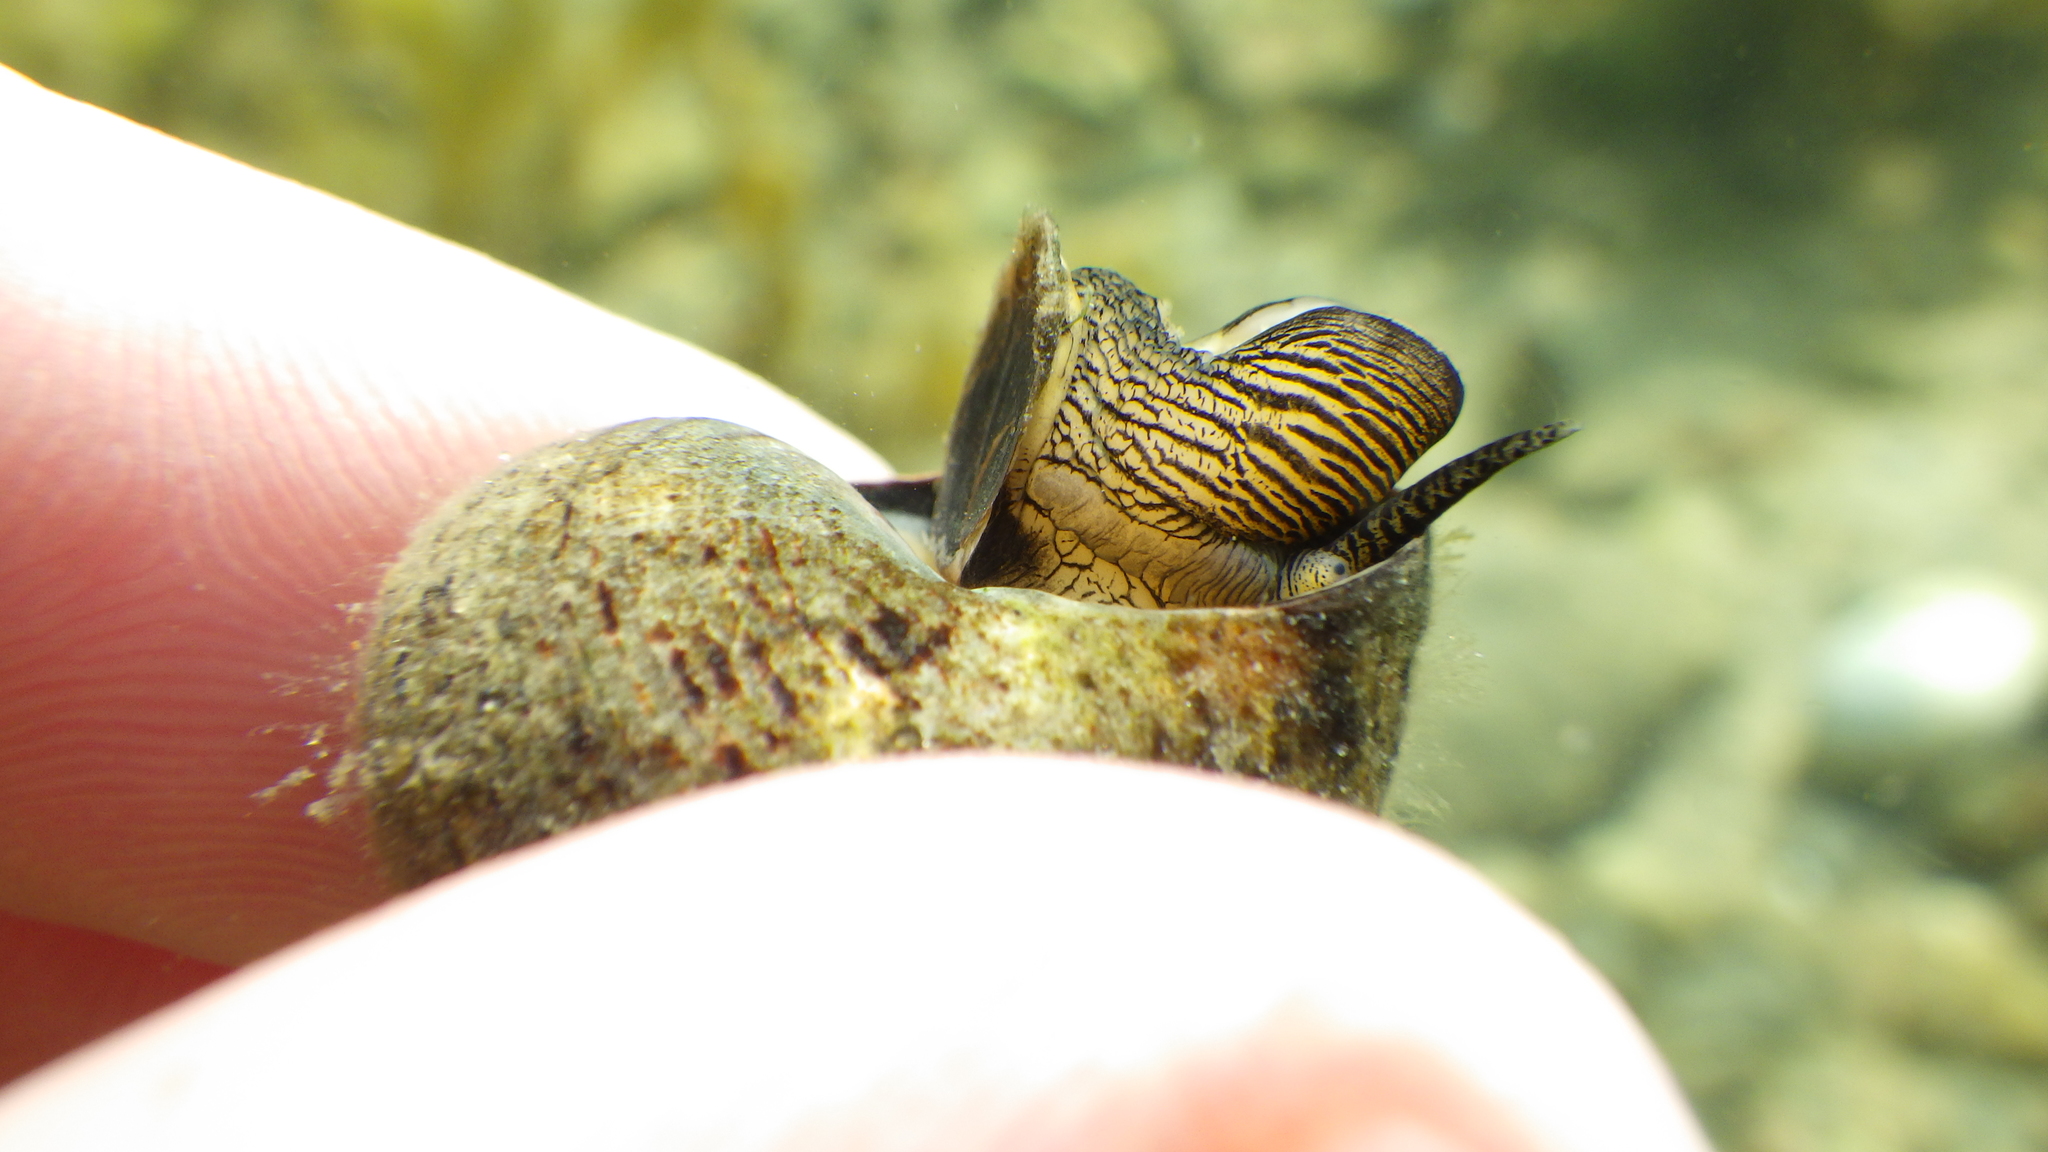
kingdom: Animalia
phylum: Mollusca
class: Gastropoda
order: Littorinimorpha
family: Littorinidae
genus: Littorina
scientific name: Littorina littorea
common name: Common periwinkle
